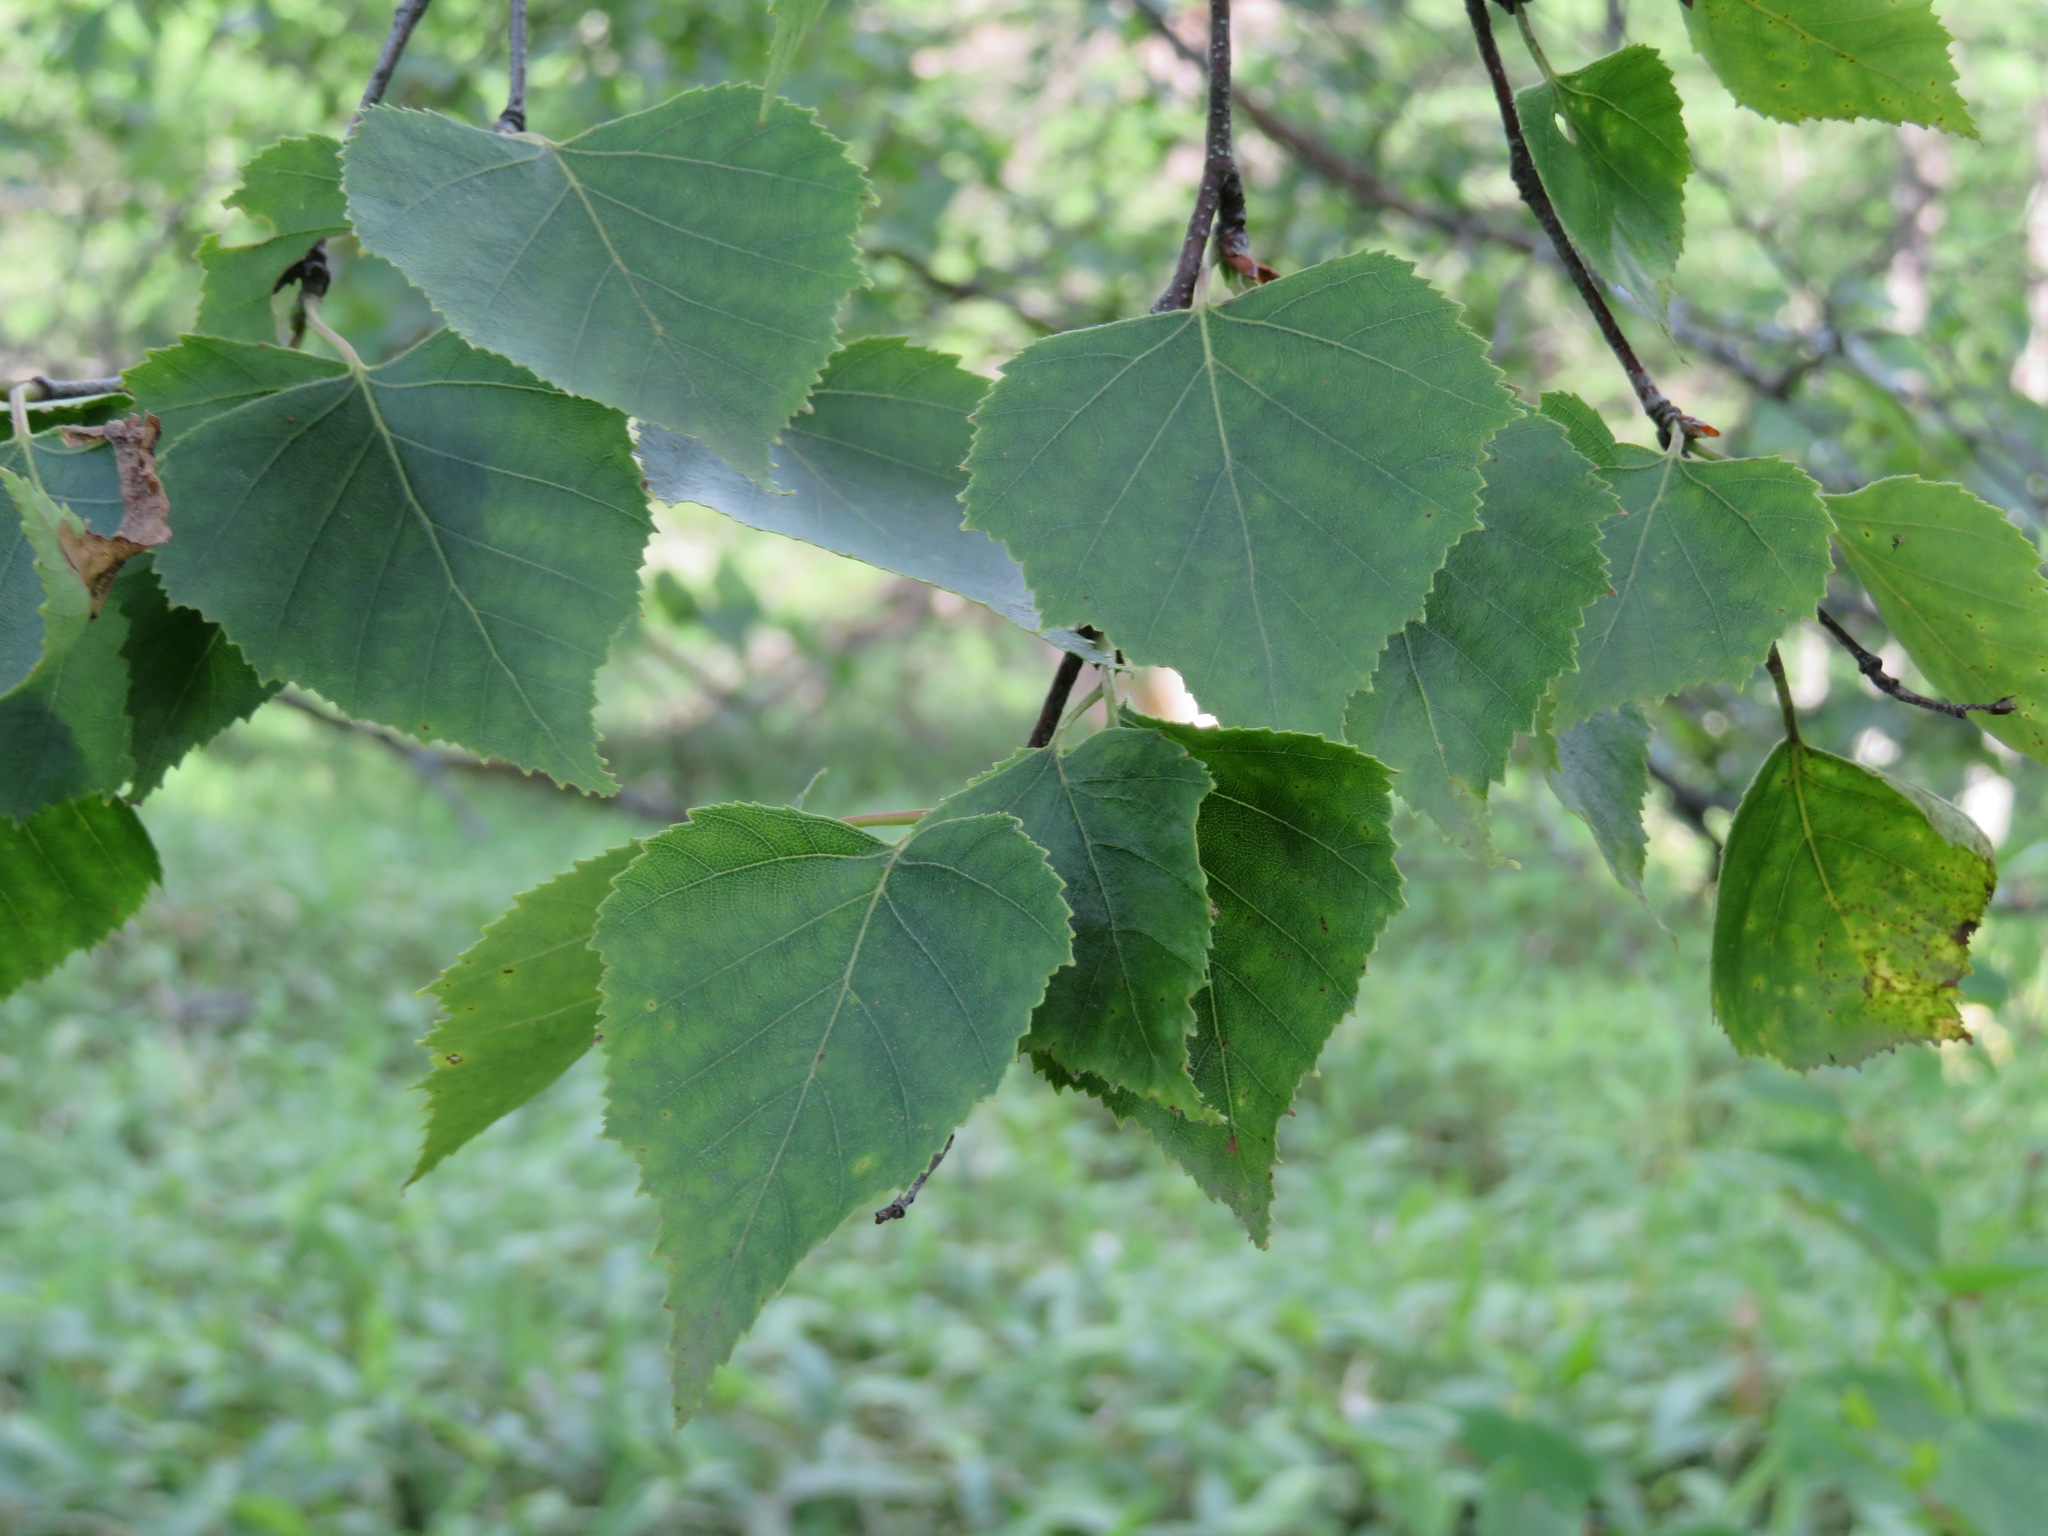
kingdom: Plantae
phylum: Tracheophyta
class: Magnoliopsida
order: Fagales
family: Betulaceae
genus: Betula
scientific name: Betula pendula
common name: Silver birch
